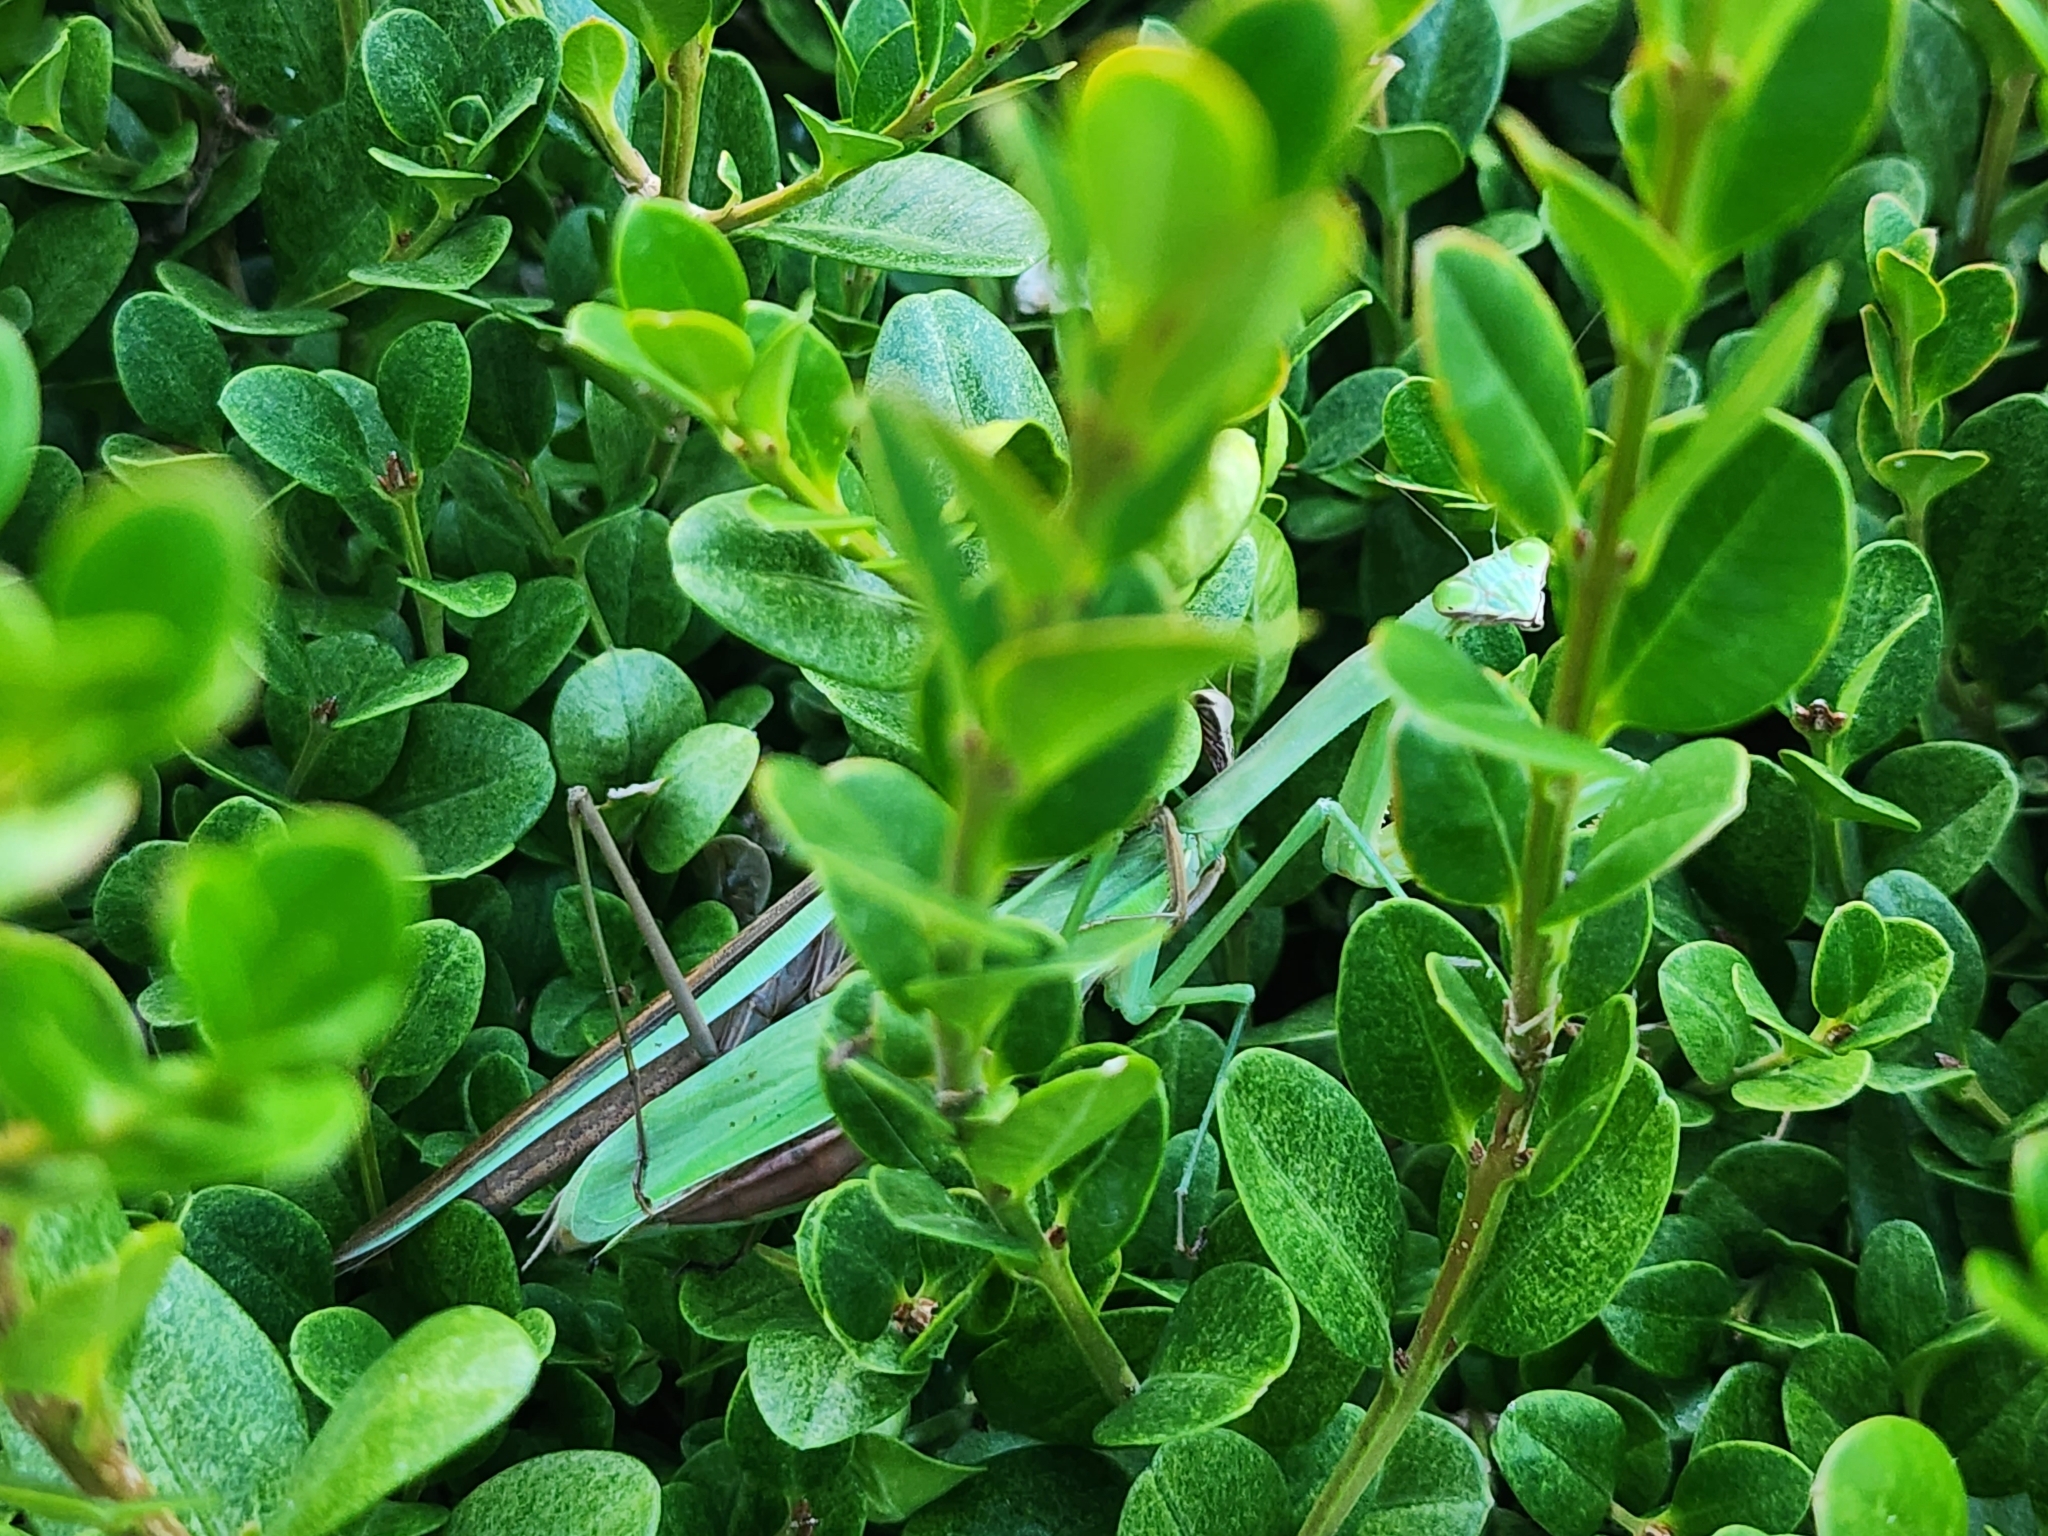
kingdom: Animalia
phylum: Arthropoda
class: Insecta
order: Mantodea
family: Mantidae
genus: Tenodera
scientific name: Tenodera sinensis
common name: Chinese mantis
